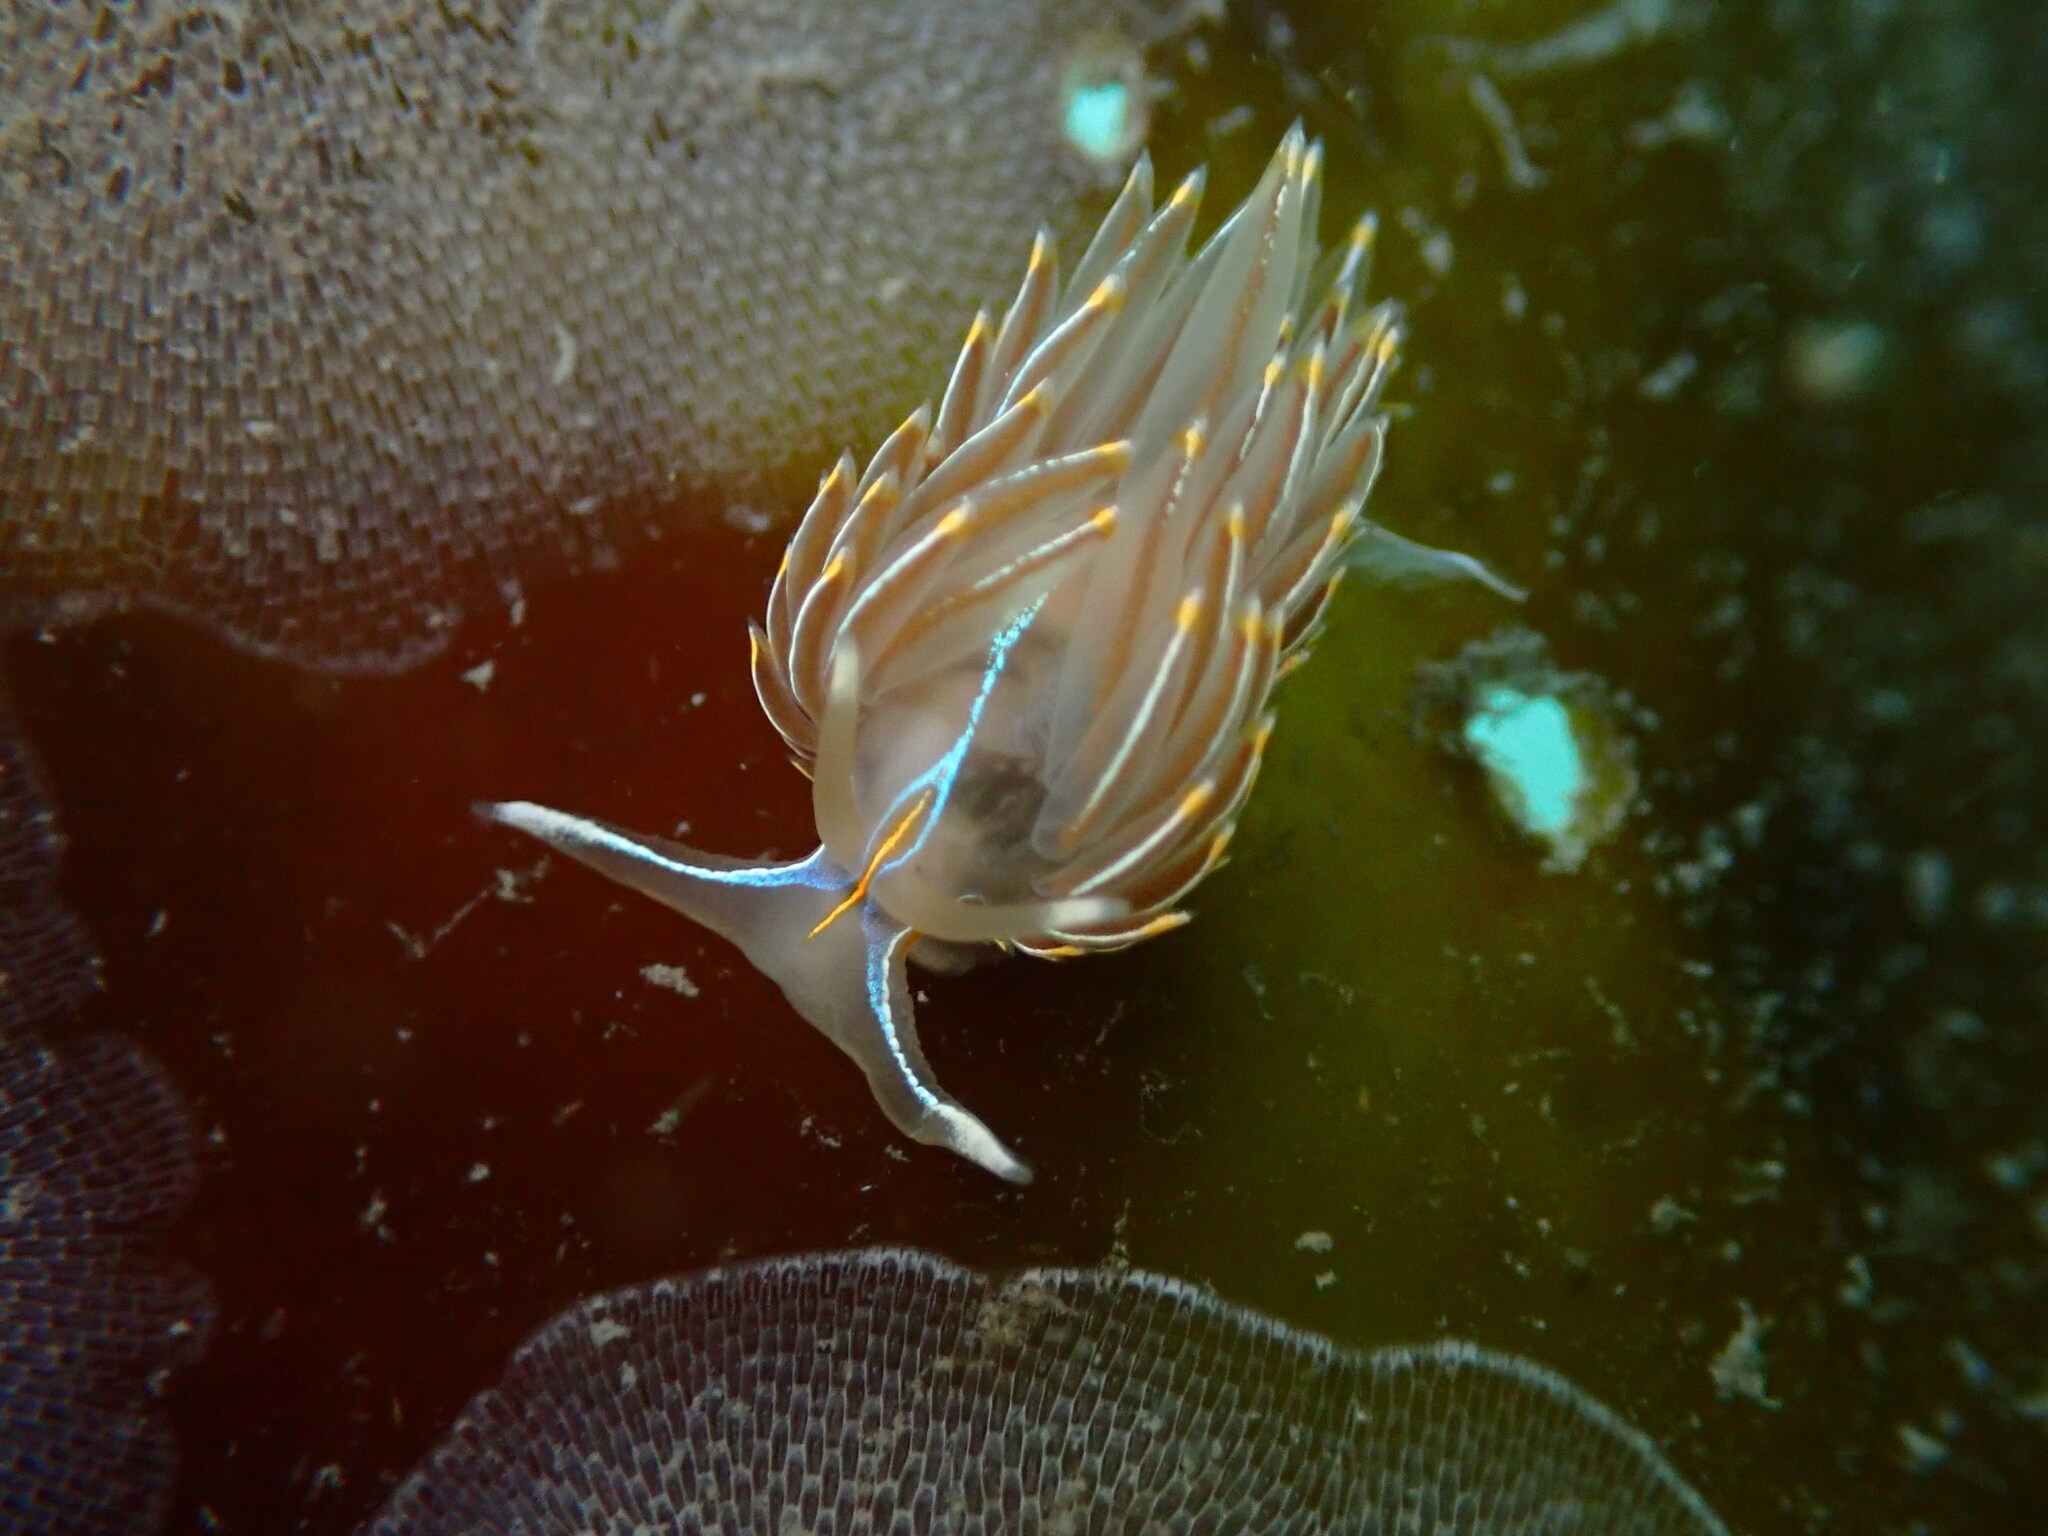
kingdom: Animalia
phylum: Mollusca
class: Gastropoda
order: Nudibranchia
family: Myrrhinidae
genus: Hermissenda
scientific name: Hermissenda crassicornis
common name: Hermissenda
